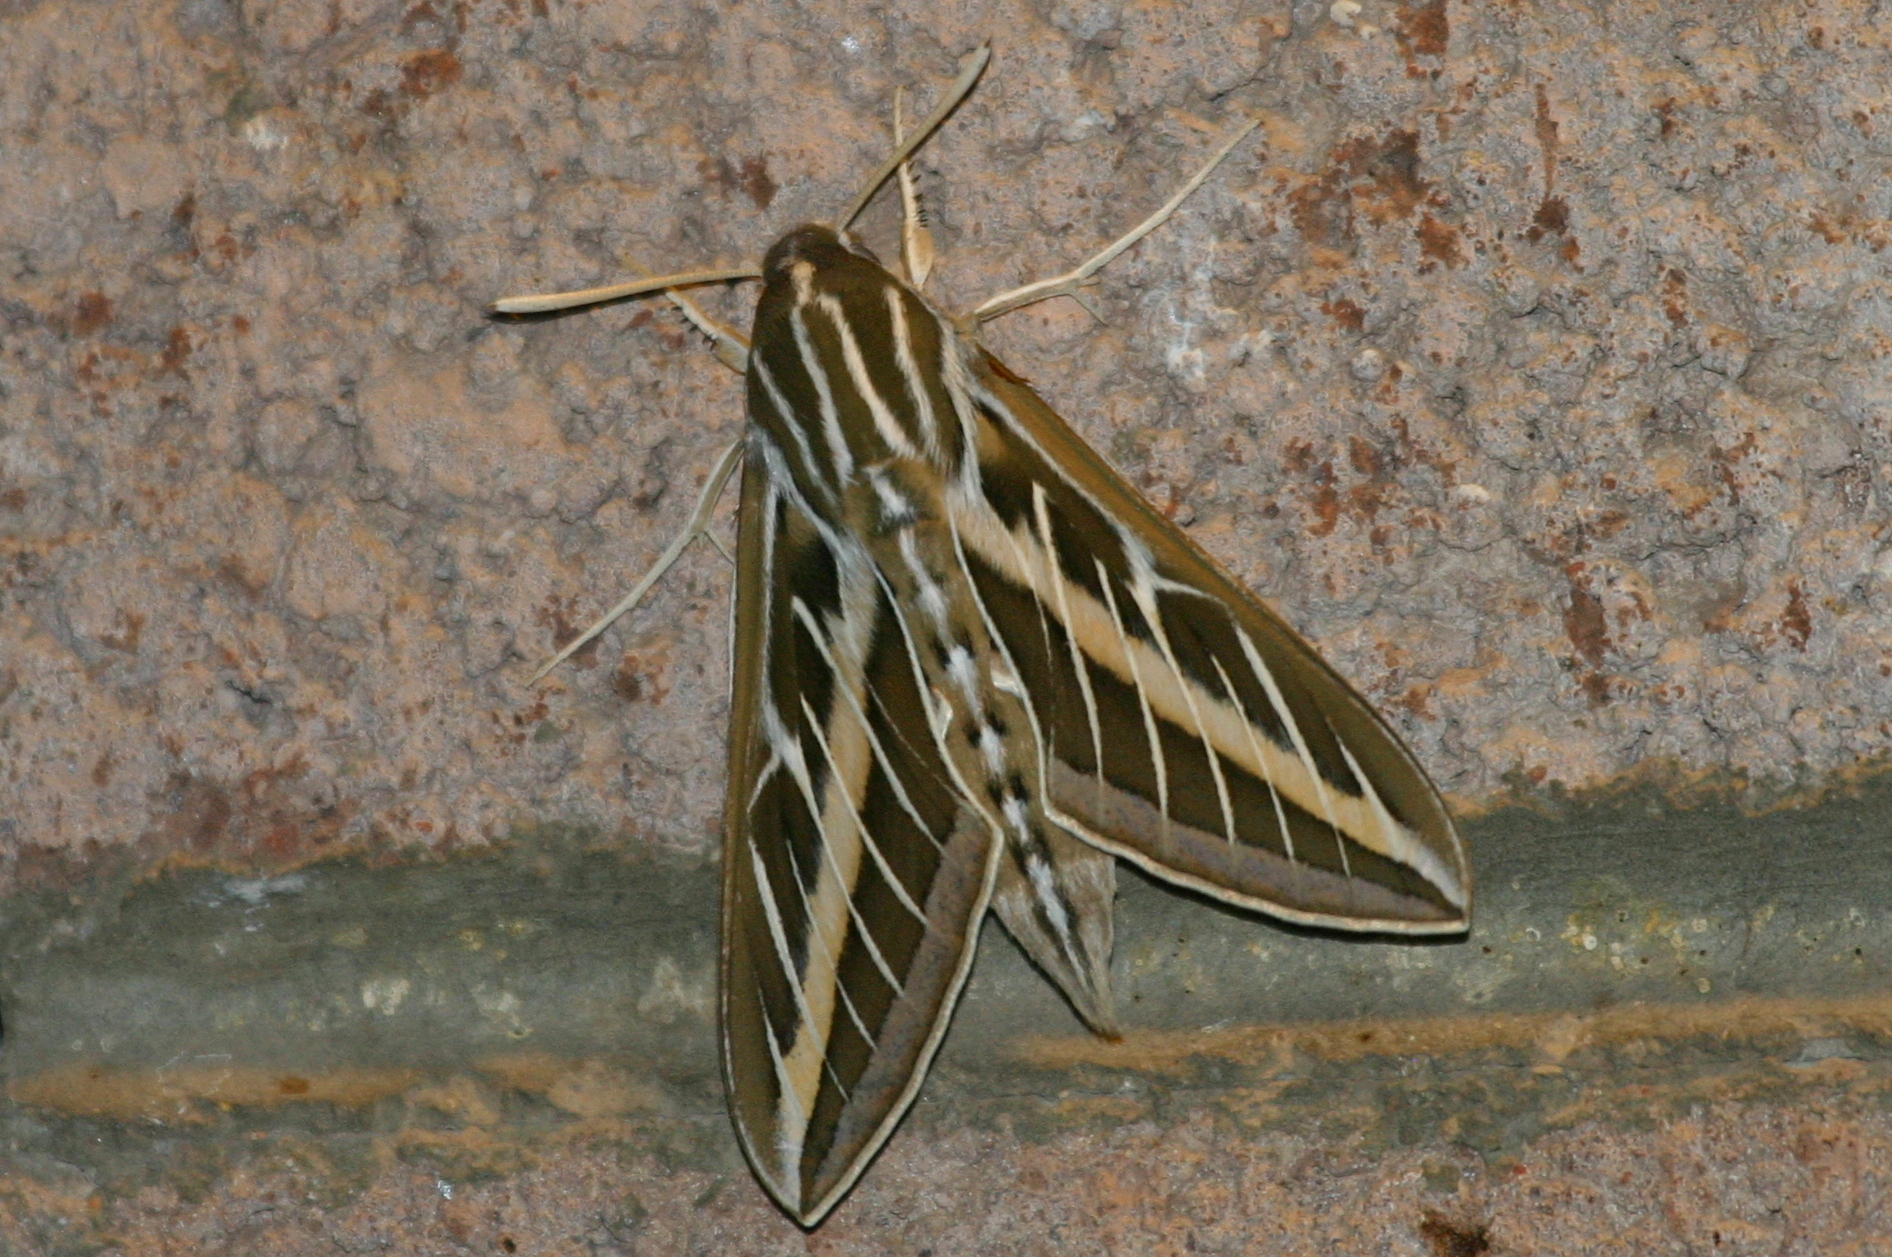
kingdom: Animalia
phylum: Arthropoda
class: Insecta
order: Lepidoptera
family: Sphingidae
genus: Hyles
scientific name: Hyles lineata
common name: White-lined sphinx
